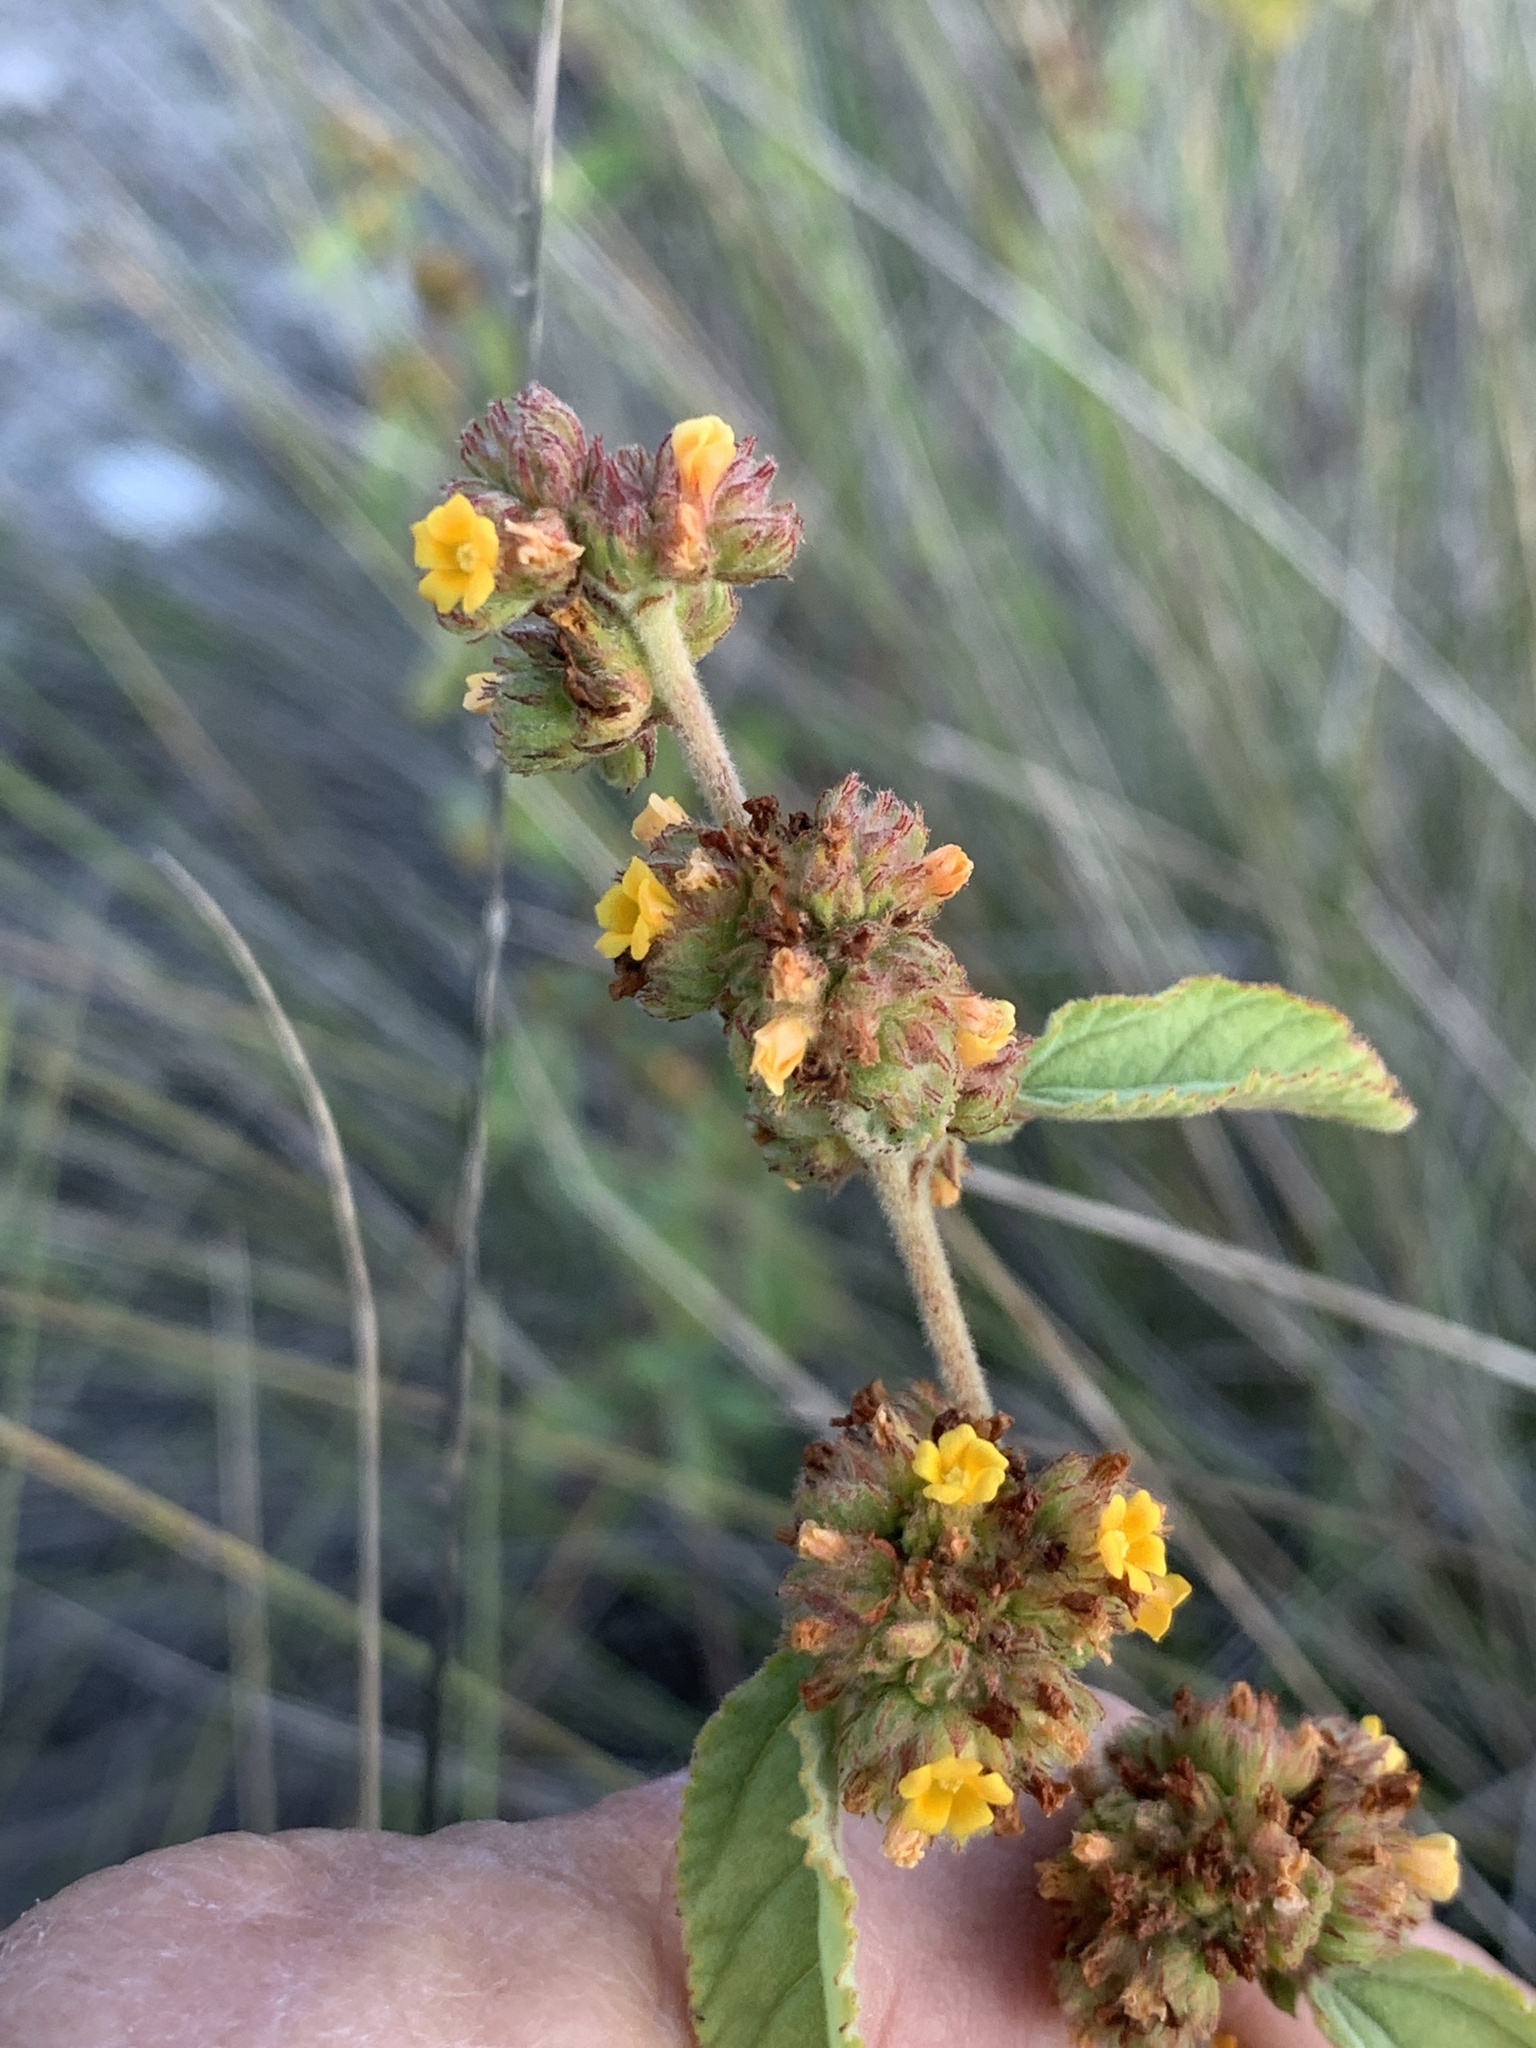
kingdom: Plantae
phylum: Tracheophyta
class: Magnoliopsida
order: Malvales
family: Malvaceae
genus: Waltheria
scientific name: Waltheria indica
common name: Leather-coat
